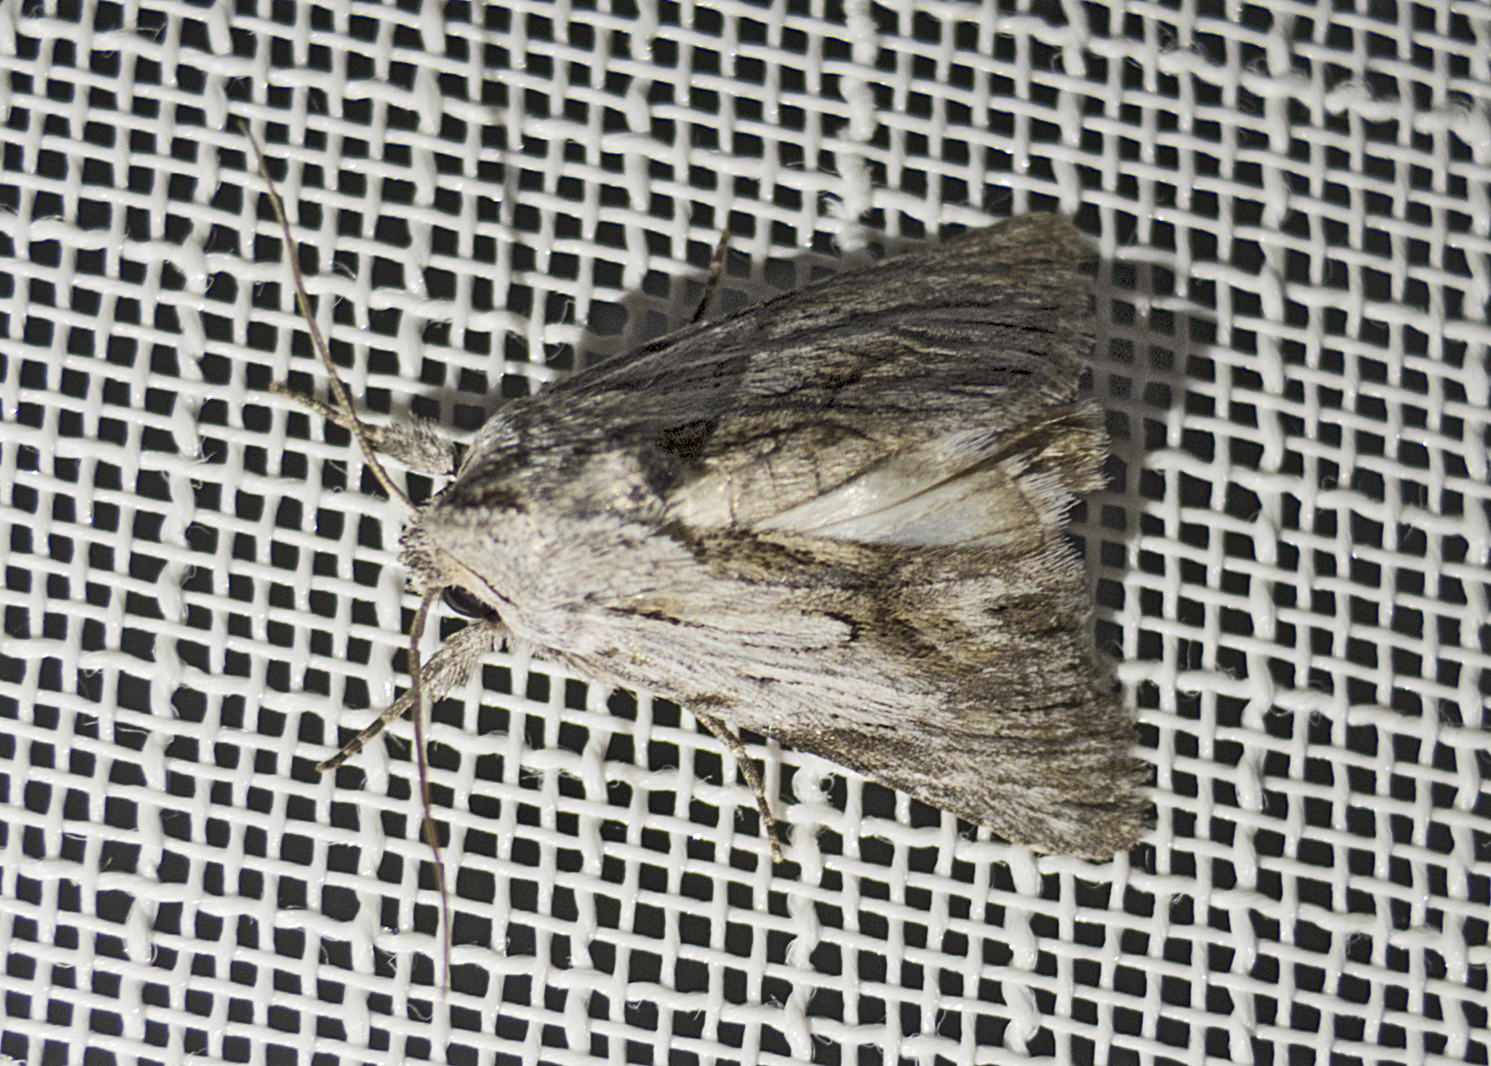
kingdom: Animalia
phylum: Arthropoda
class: Insecta
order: Lepidoptera
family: Noctuidae
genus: Calophasia
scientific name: Calophasia platyptera
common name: Antirrhinum brocade
